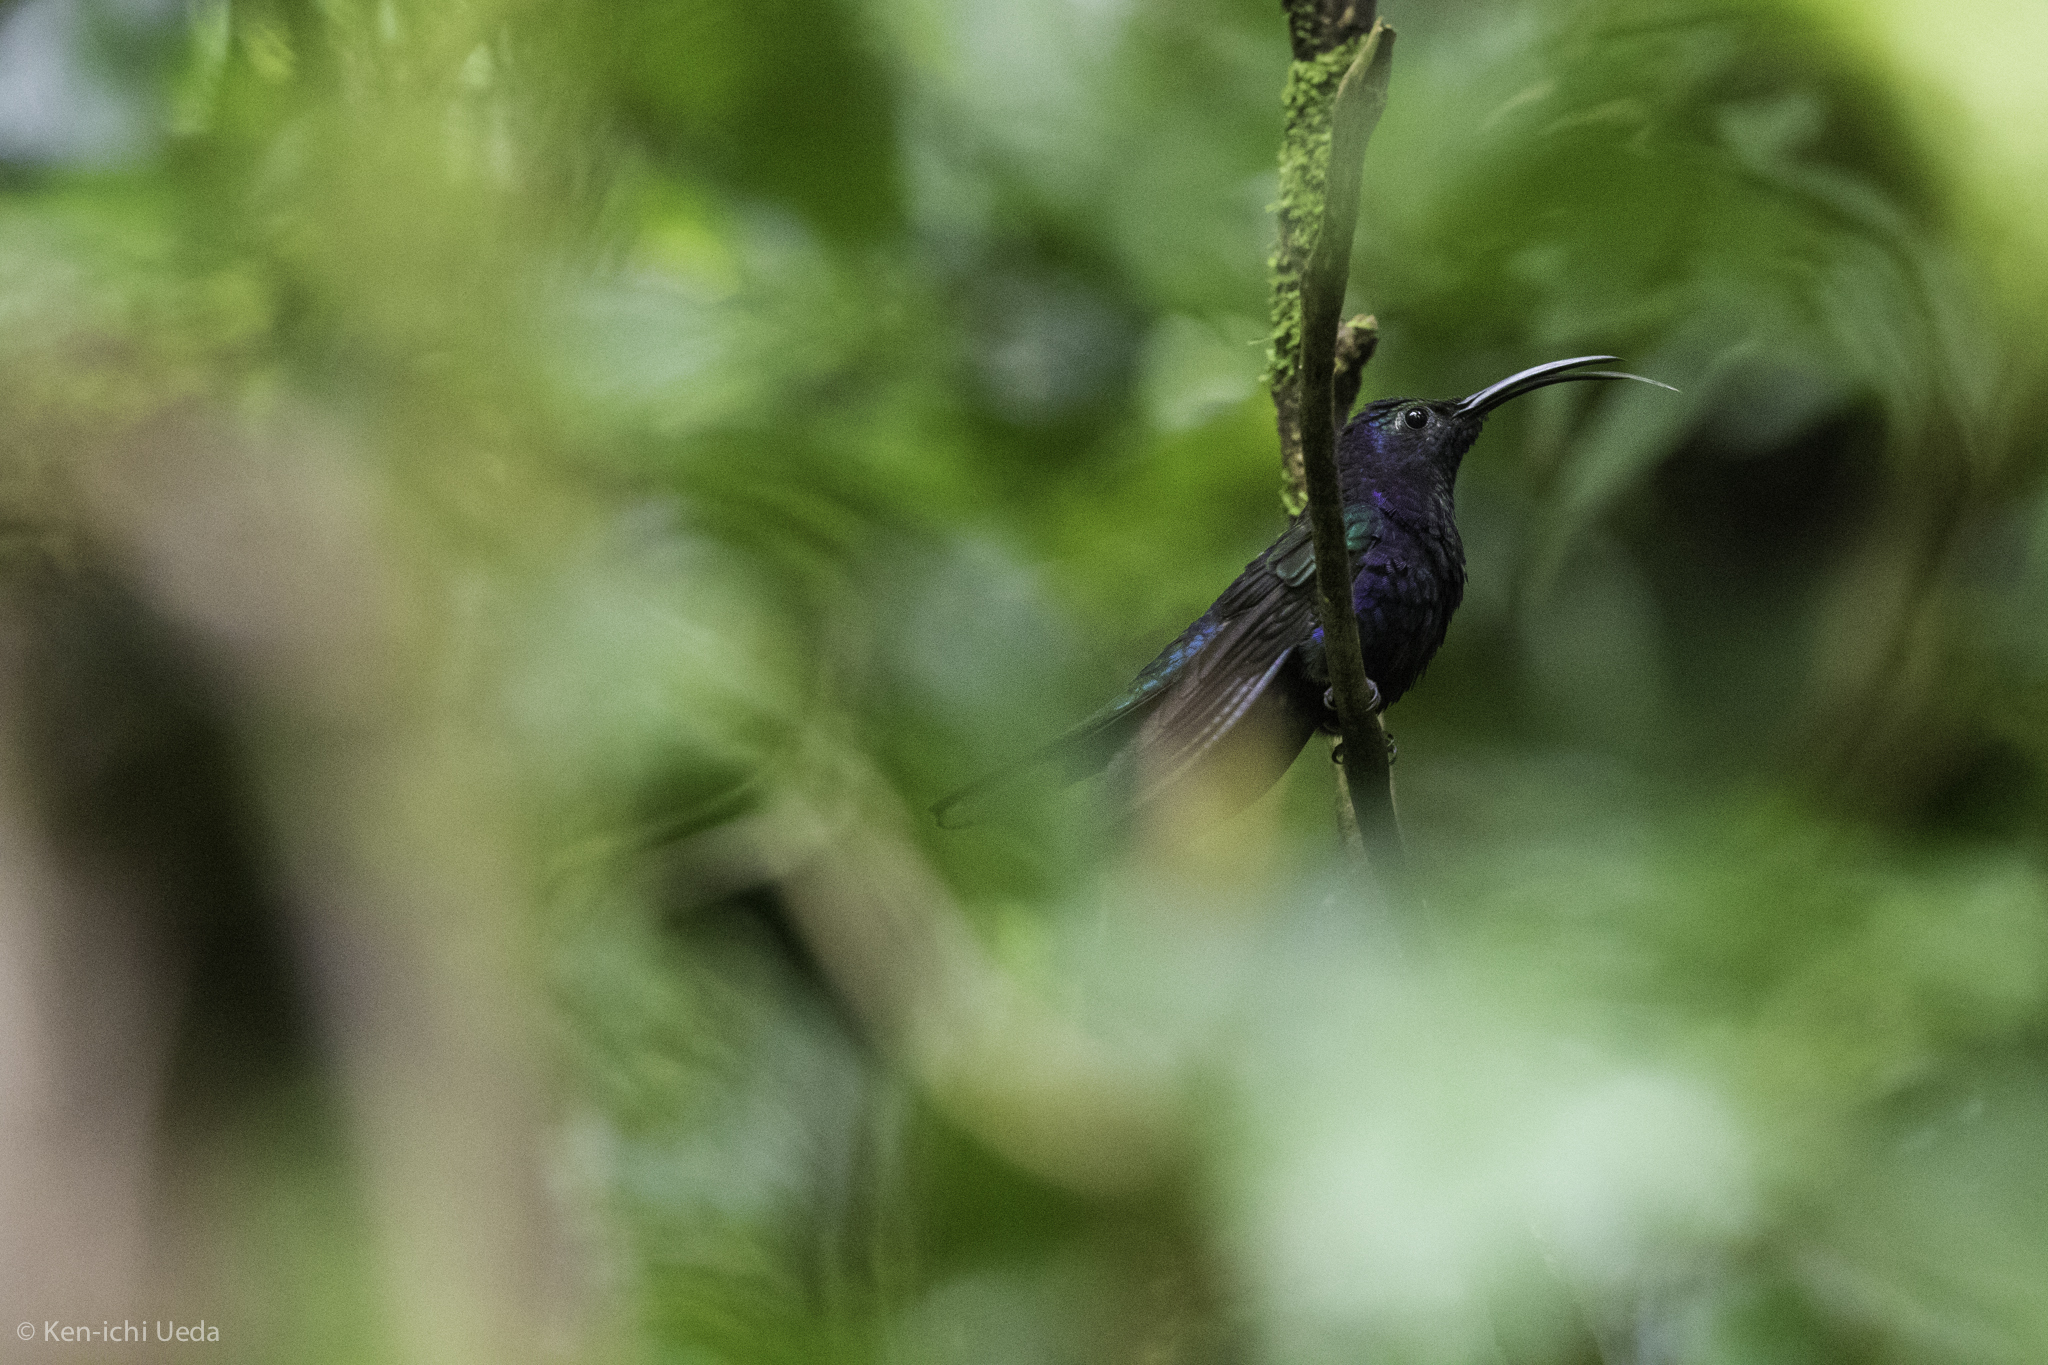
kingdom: Animalia
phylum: Chordata
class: Aves
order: Apodiformes
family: Trochilidae
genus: Campylopterus
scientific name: Campylopterus hemileucurus
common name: Violet sabrewing
